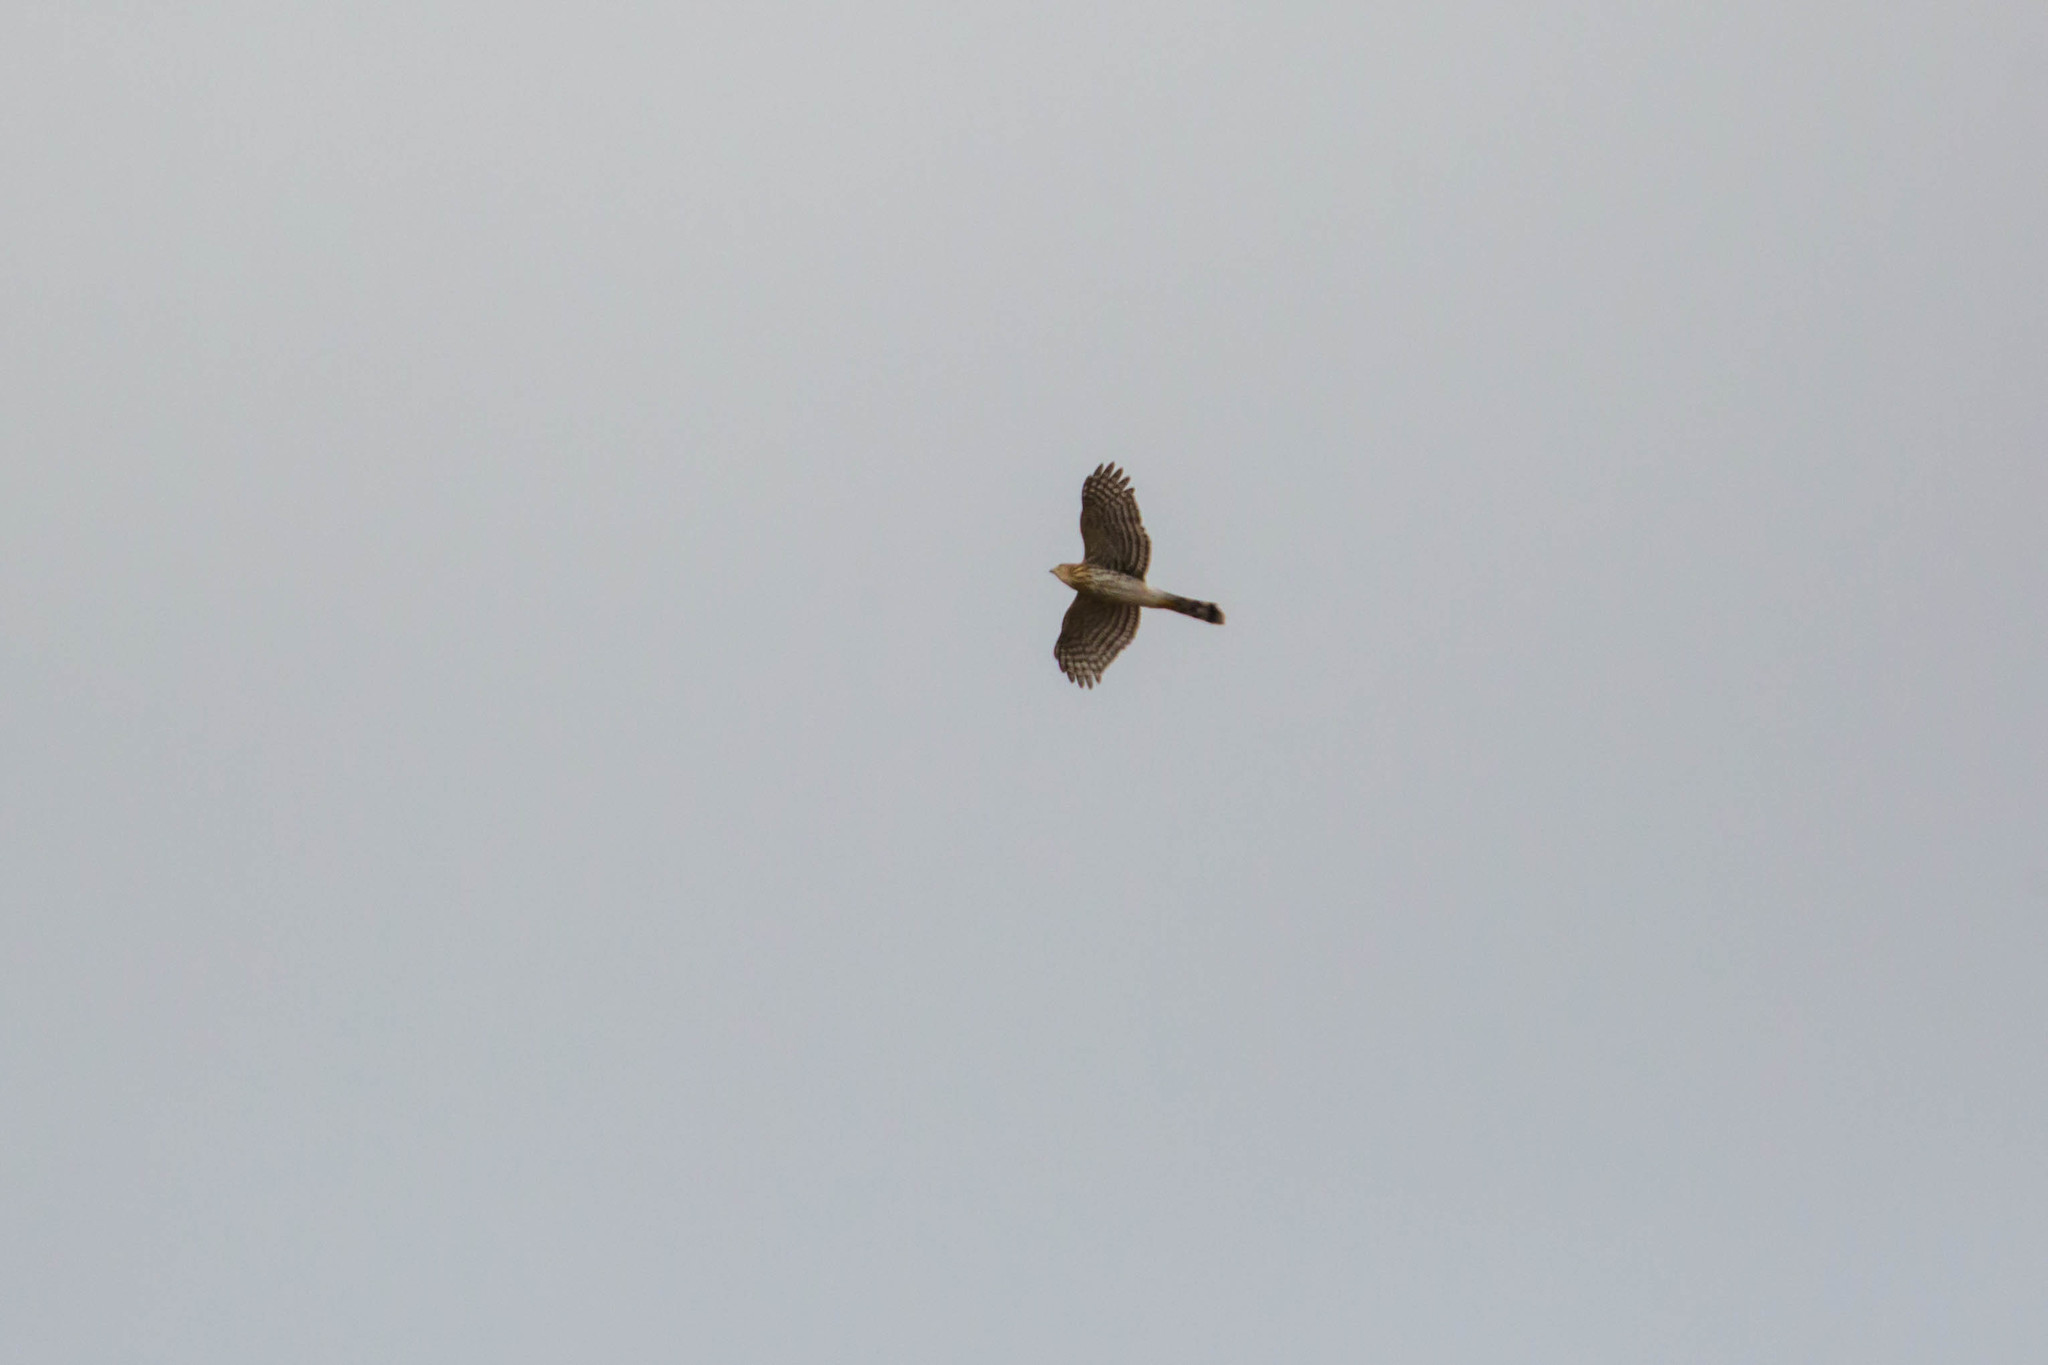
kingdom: Animalia
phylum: Chordata
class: Aves
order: Accipitriformes
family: Accipitridae
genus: Accipiter
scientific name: Accipiter cooperii
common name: Cooper's hawk
